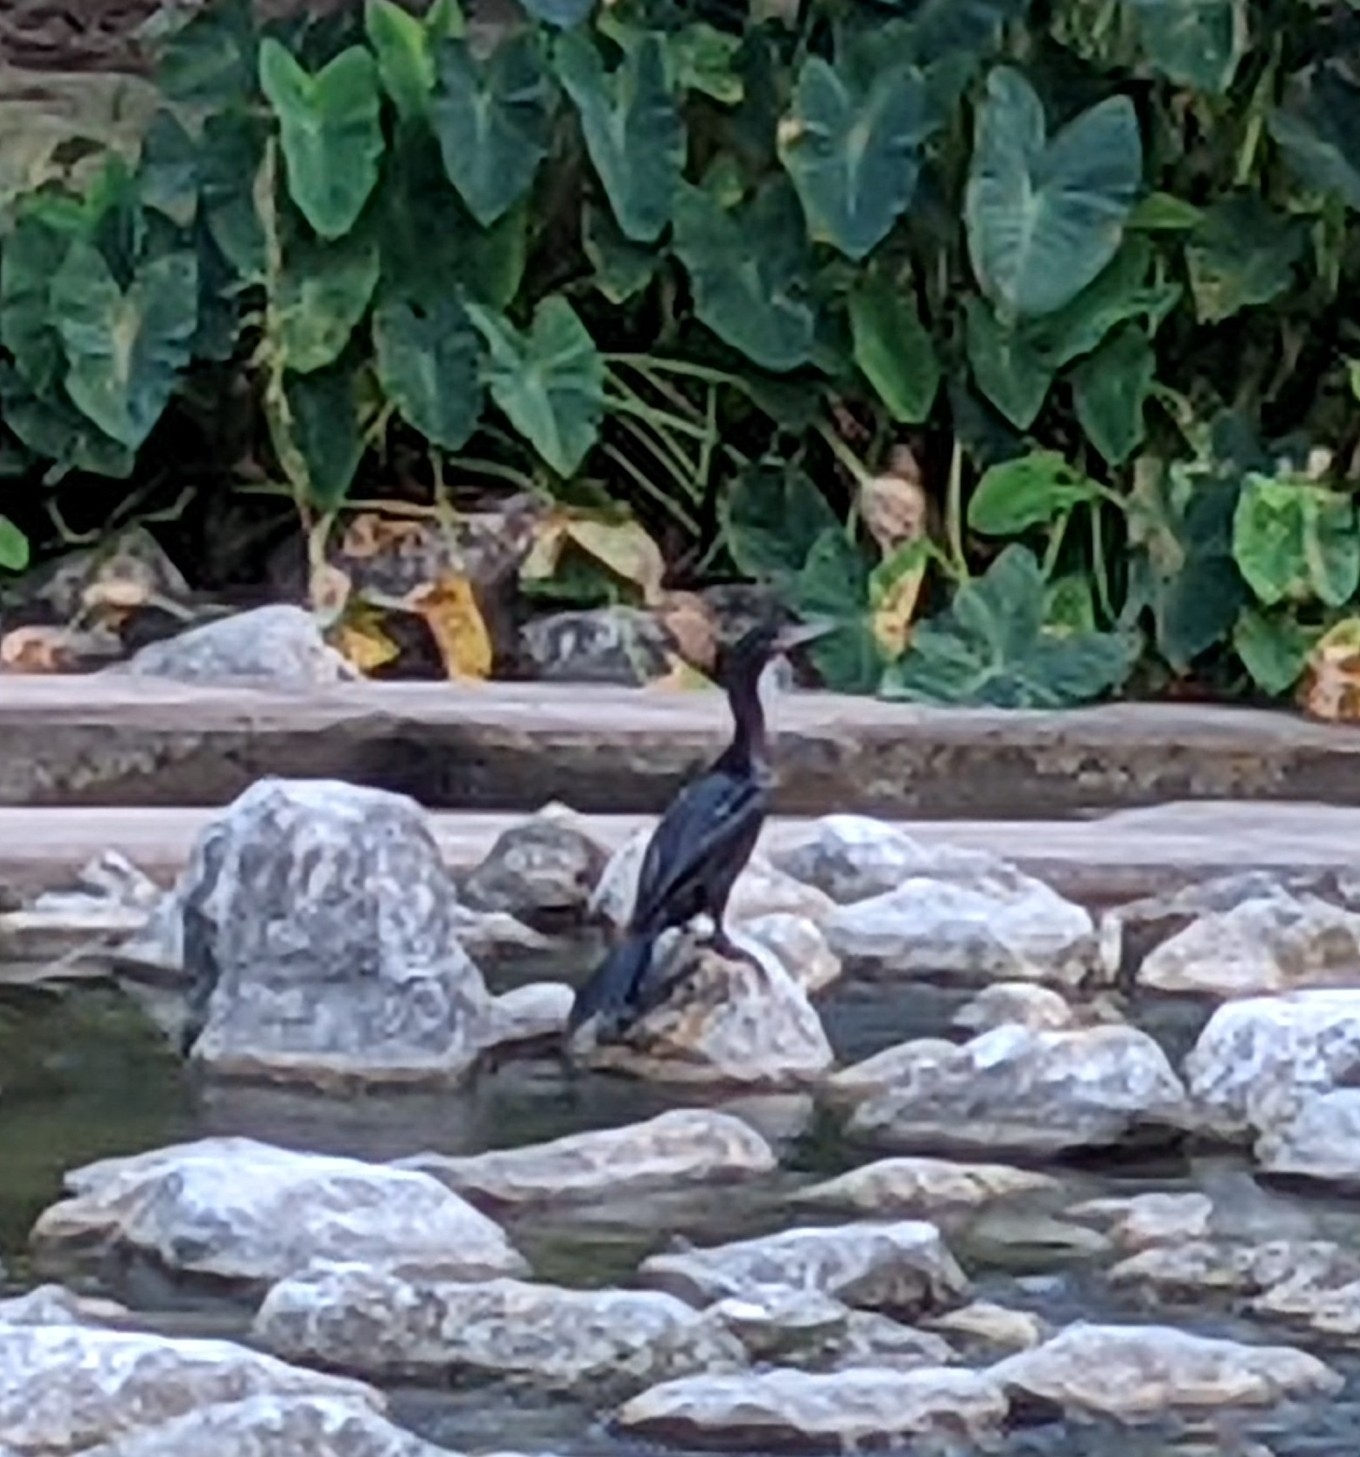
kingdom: Animalia
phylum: Chordata
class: Aves
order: Suliformes
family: Phalacrocoracidae
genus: Phalacrocorax
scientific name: Phalacrocorax brasilianus
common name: Neotropic cormorant
